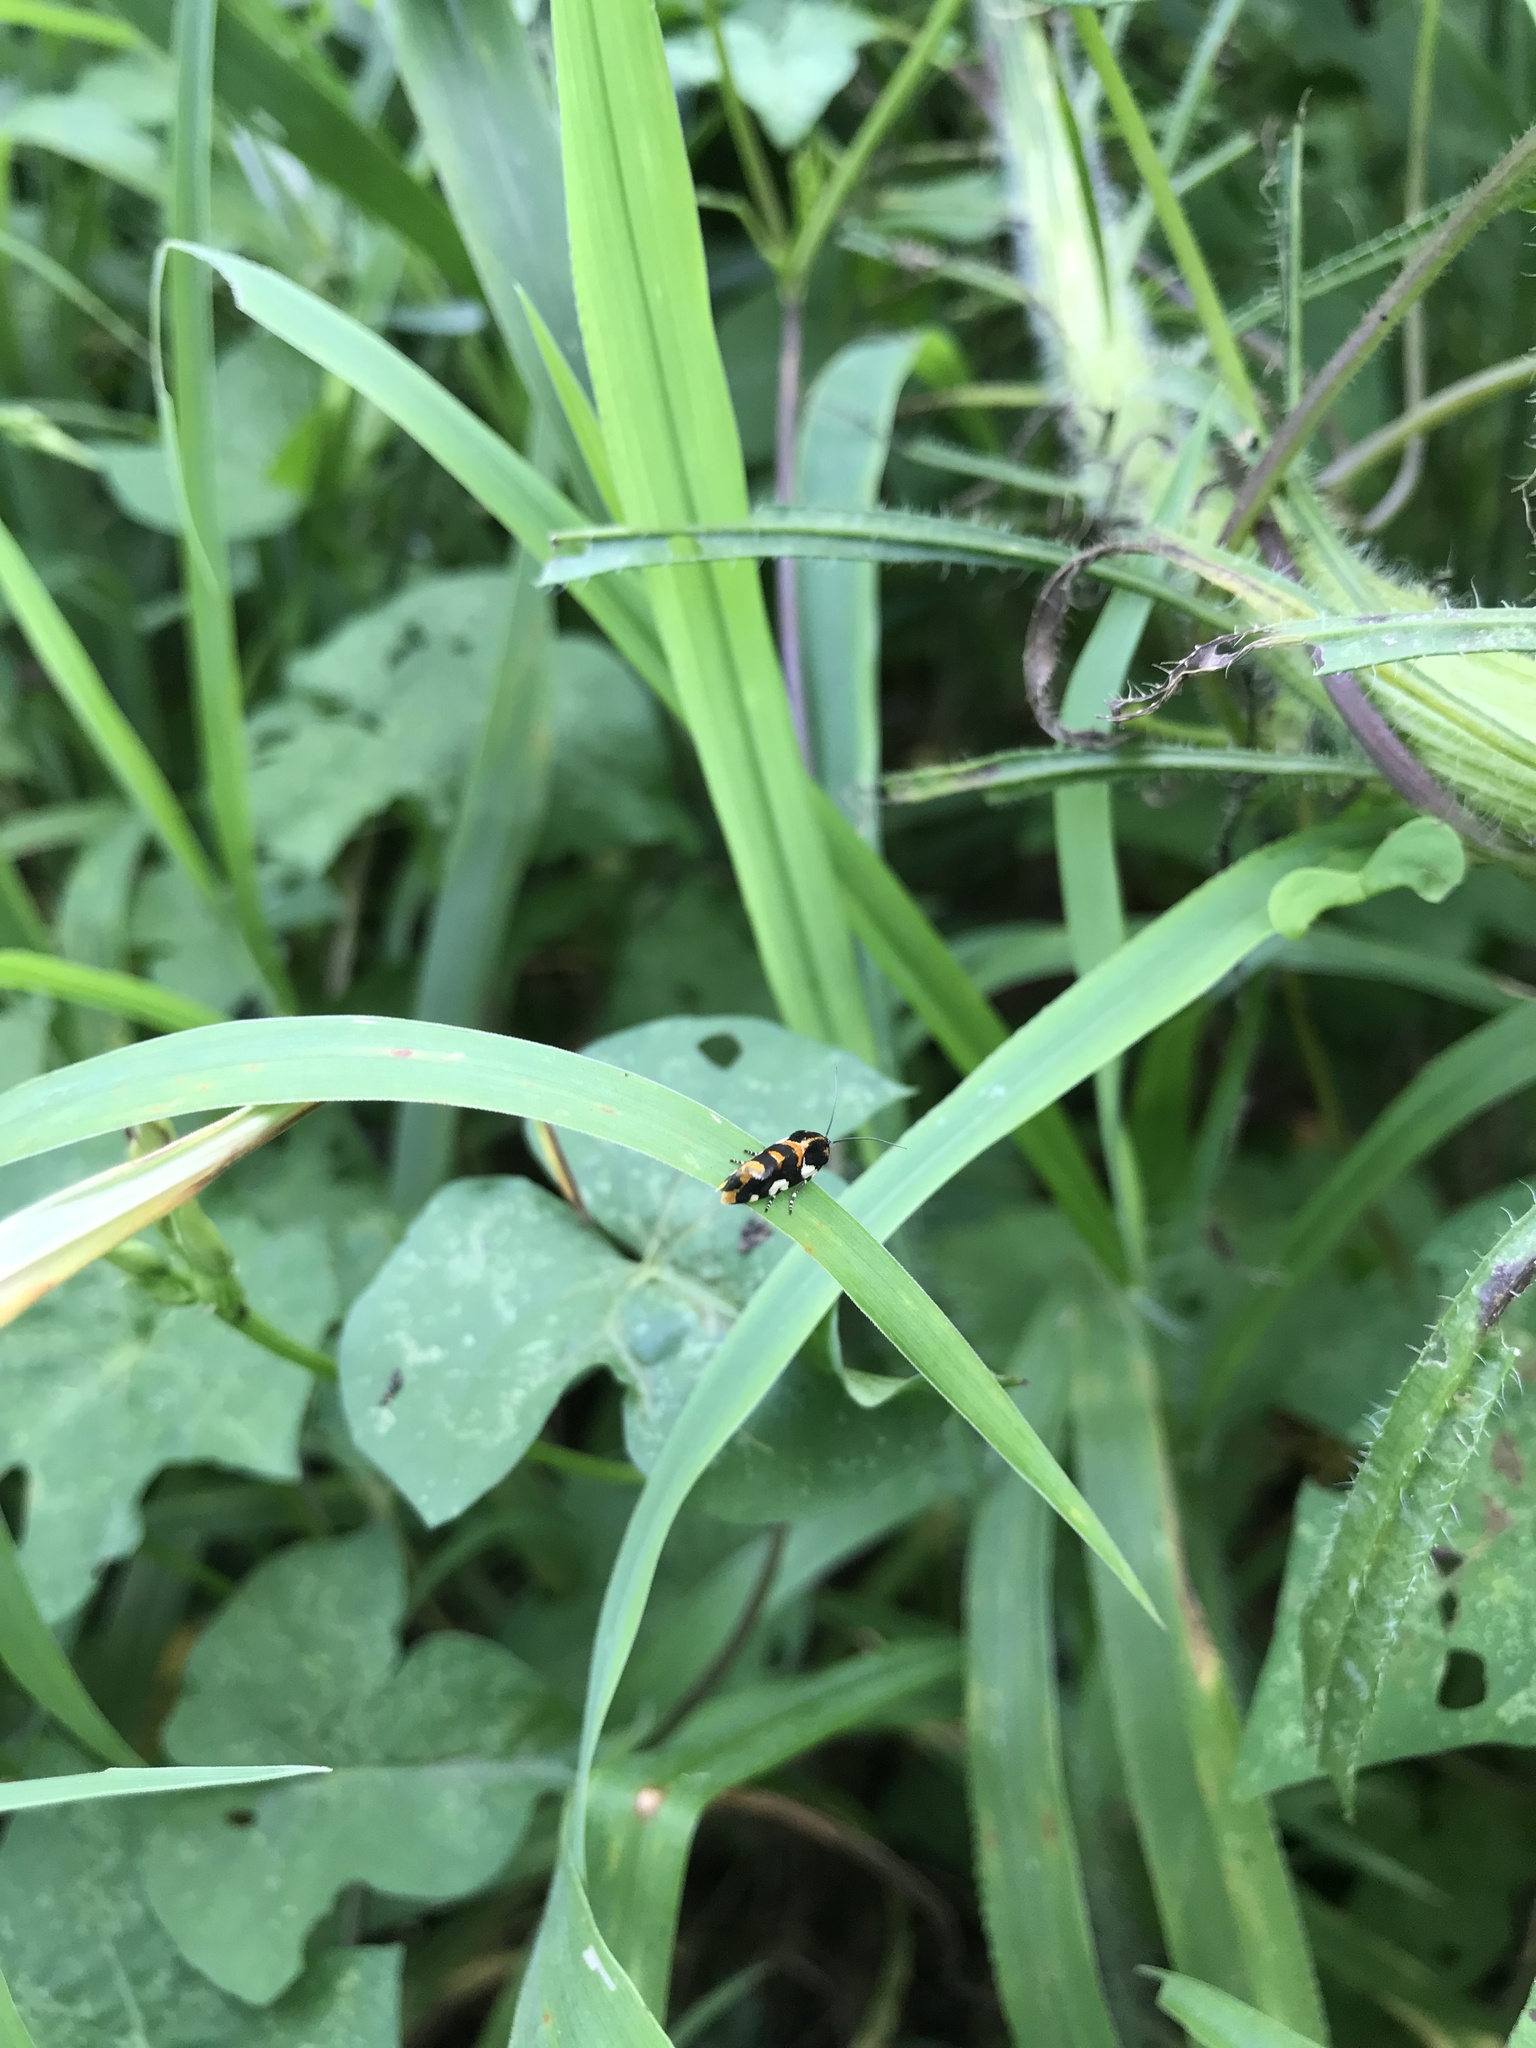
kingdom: Animalia
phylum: Arthropoda
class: Insecta
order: Lepidoptera
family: Noctuidae
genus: Acontia
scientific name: Acontia dama
